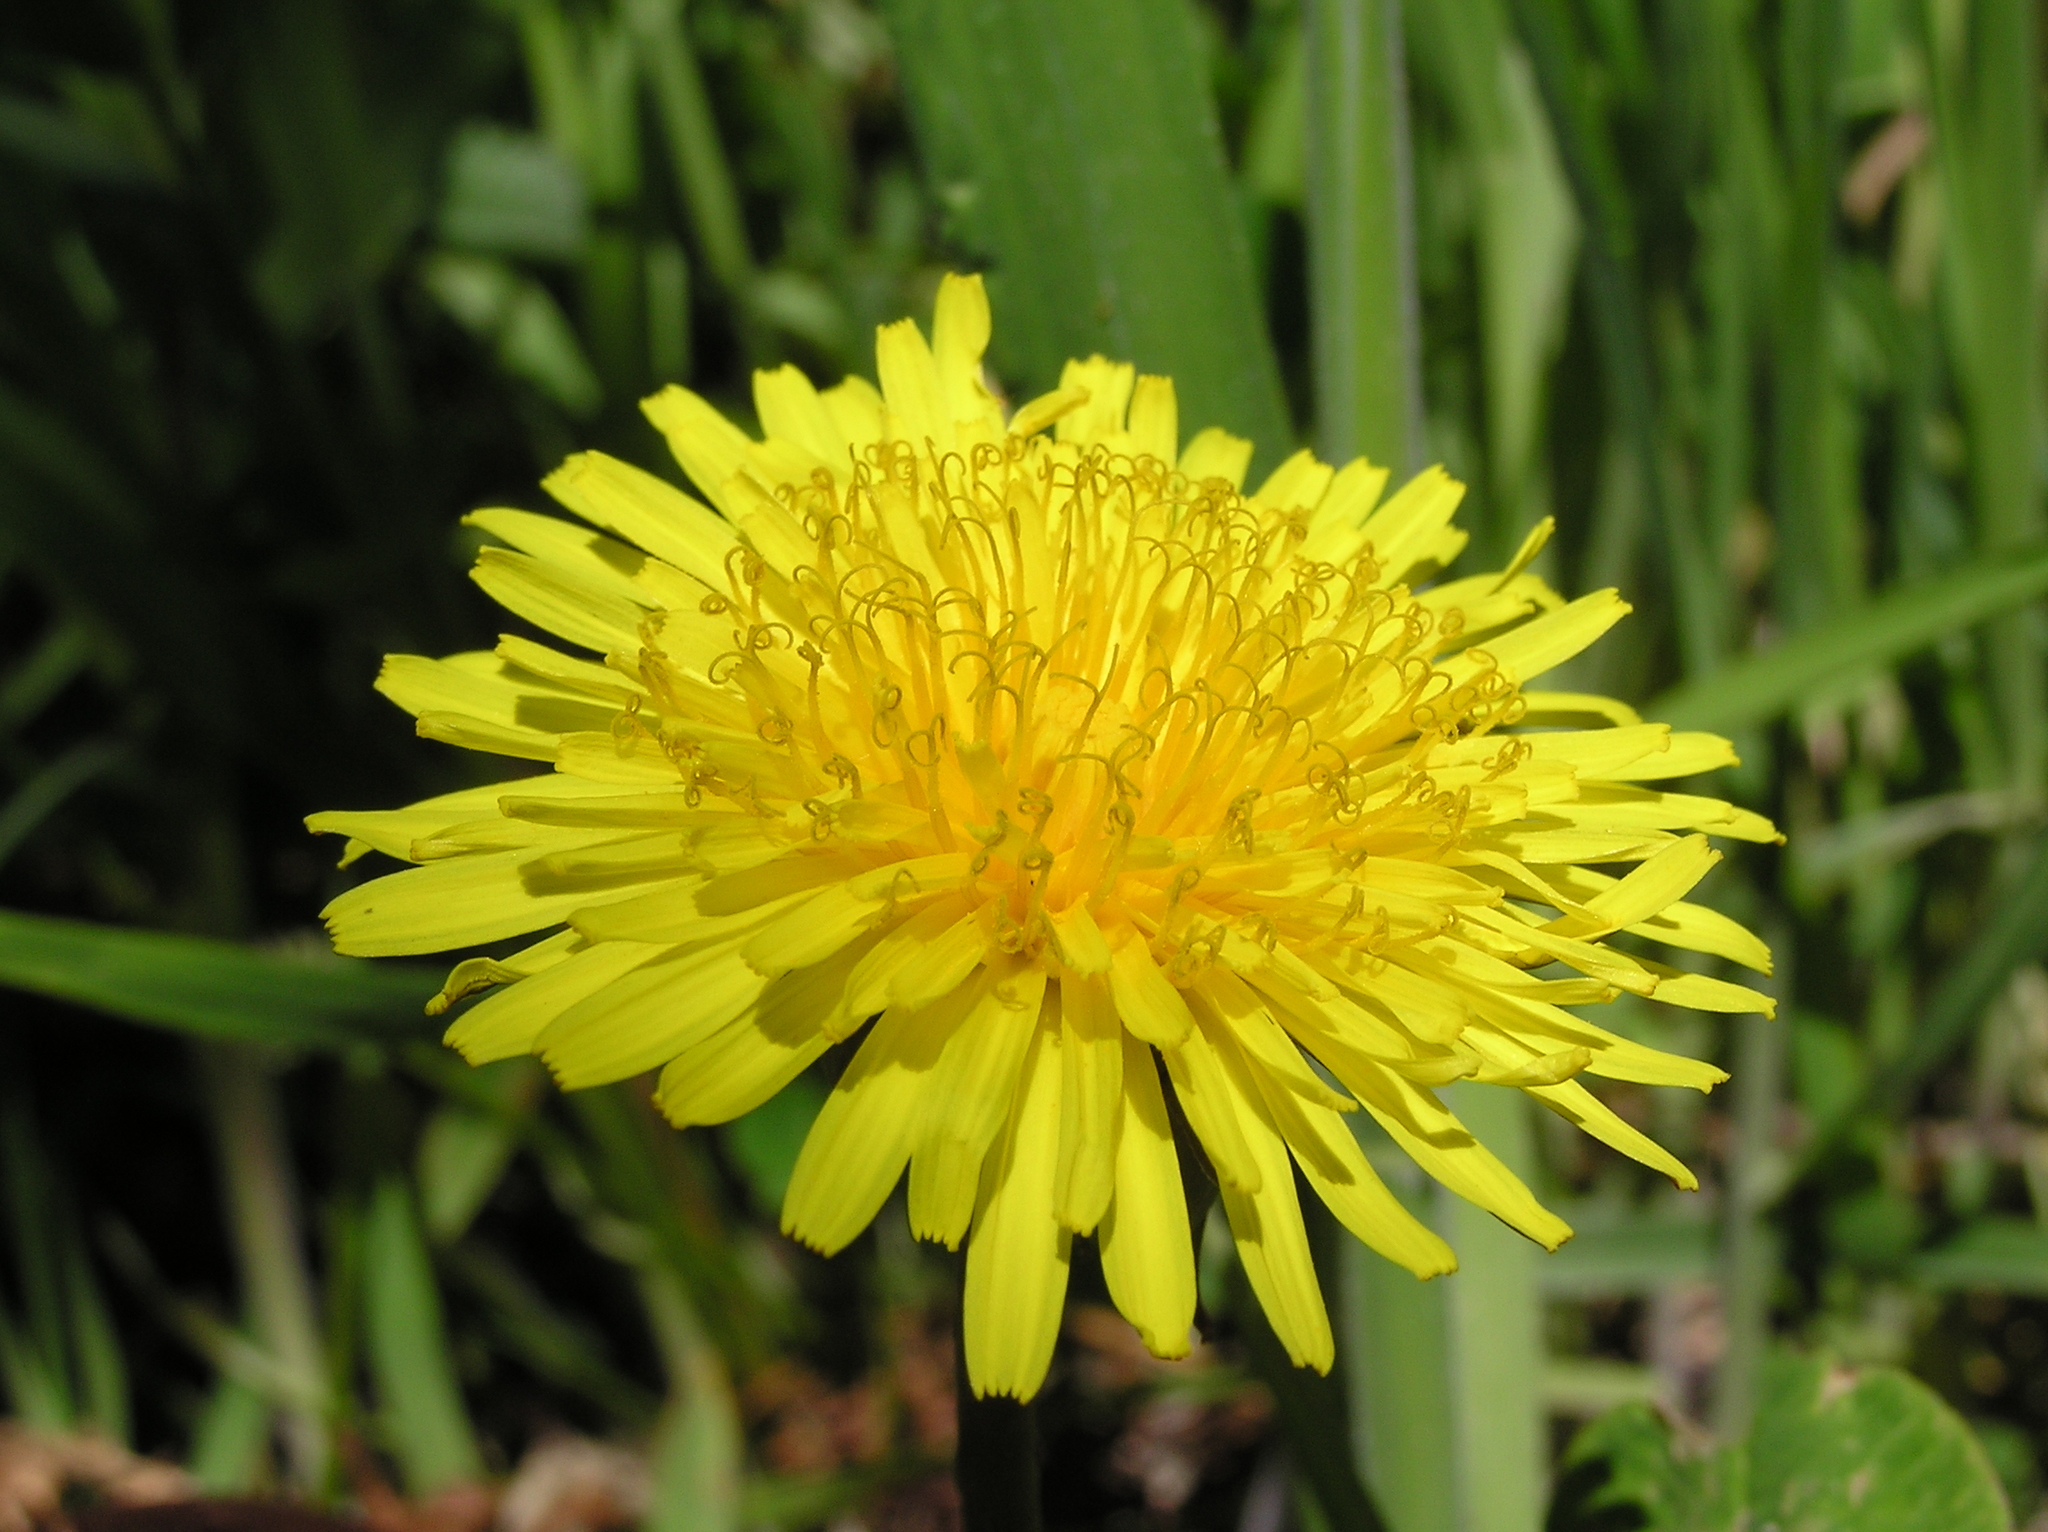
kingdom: Plantae
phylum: Tracheophyta
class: Magnoliopsida
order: Asterales
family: Asteraceae
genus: Taraxacum
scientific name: Taraxacum officinale
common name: Common dandelion
